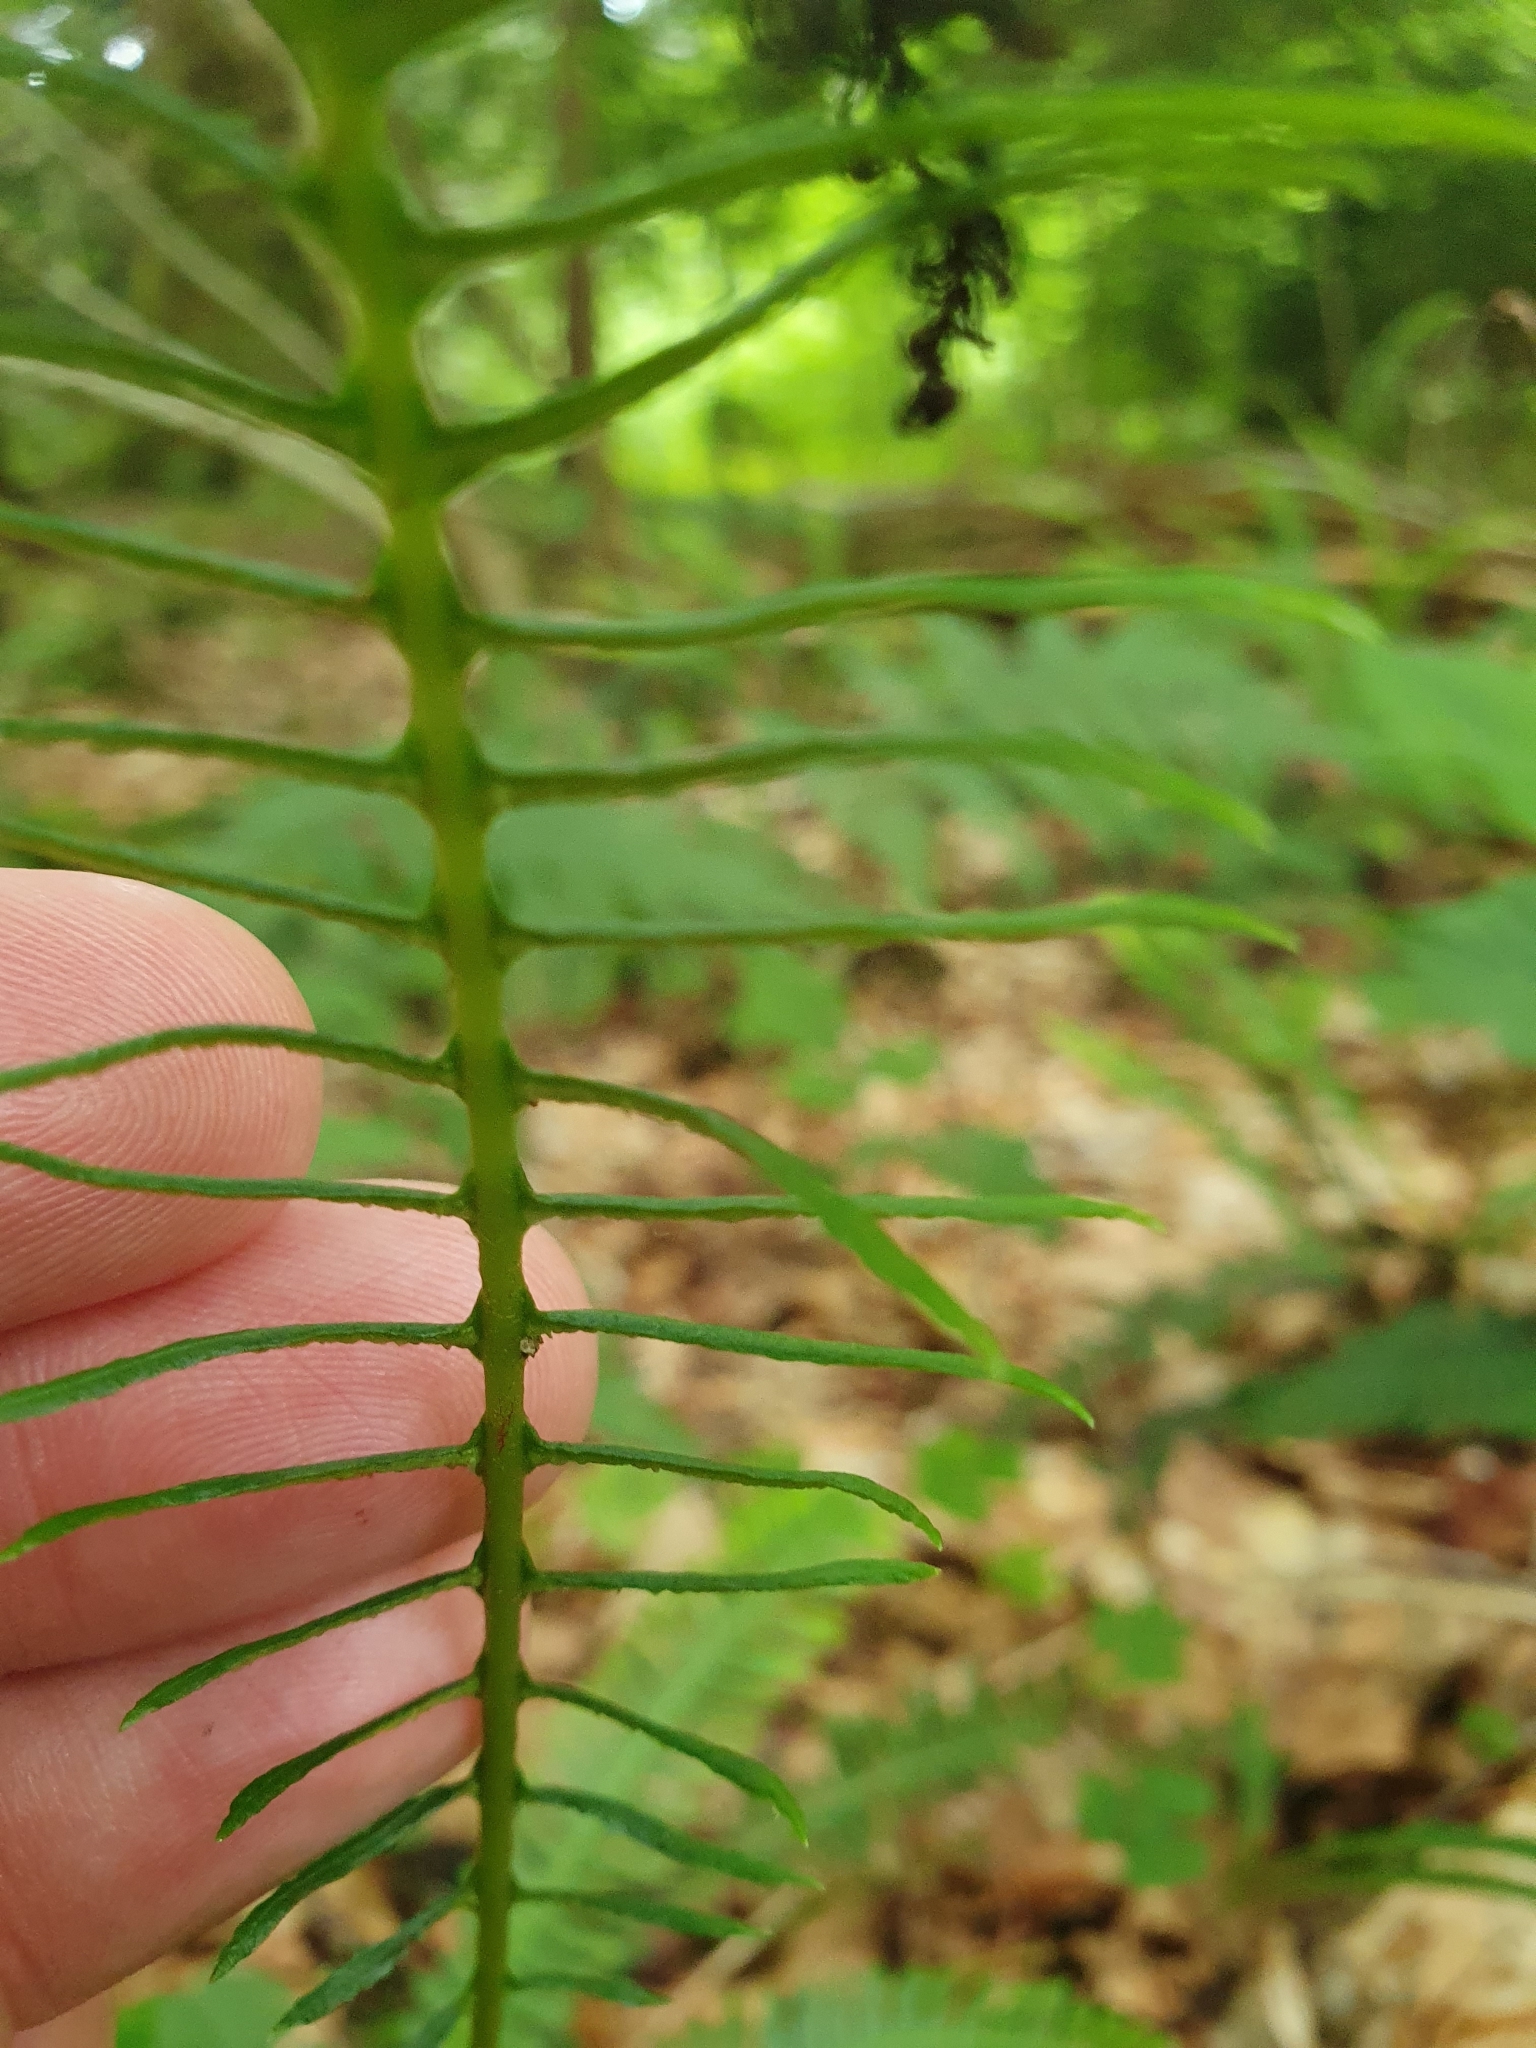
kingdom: Plantae
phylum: Tracheophyta
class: Polypodiopsida
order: Polypodiales
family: Blechnaceae
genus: Struthiopteris
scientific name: Struthiopteris spicant
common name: Deer fern
